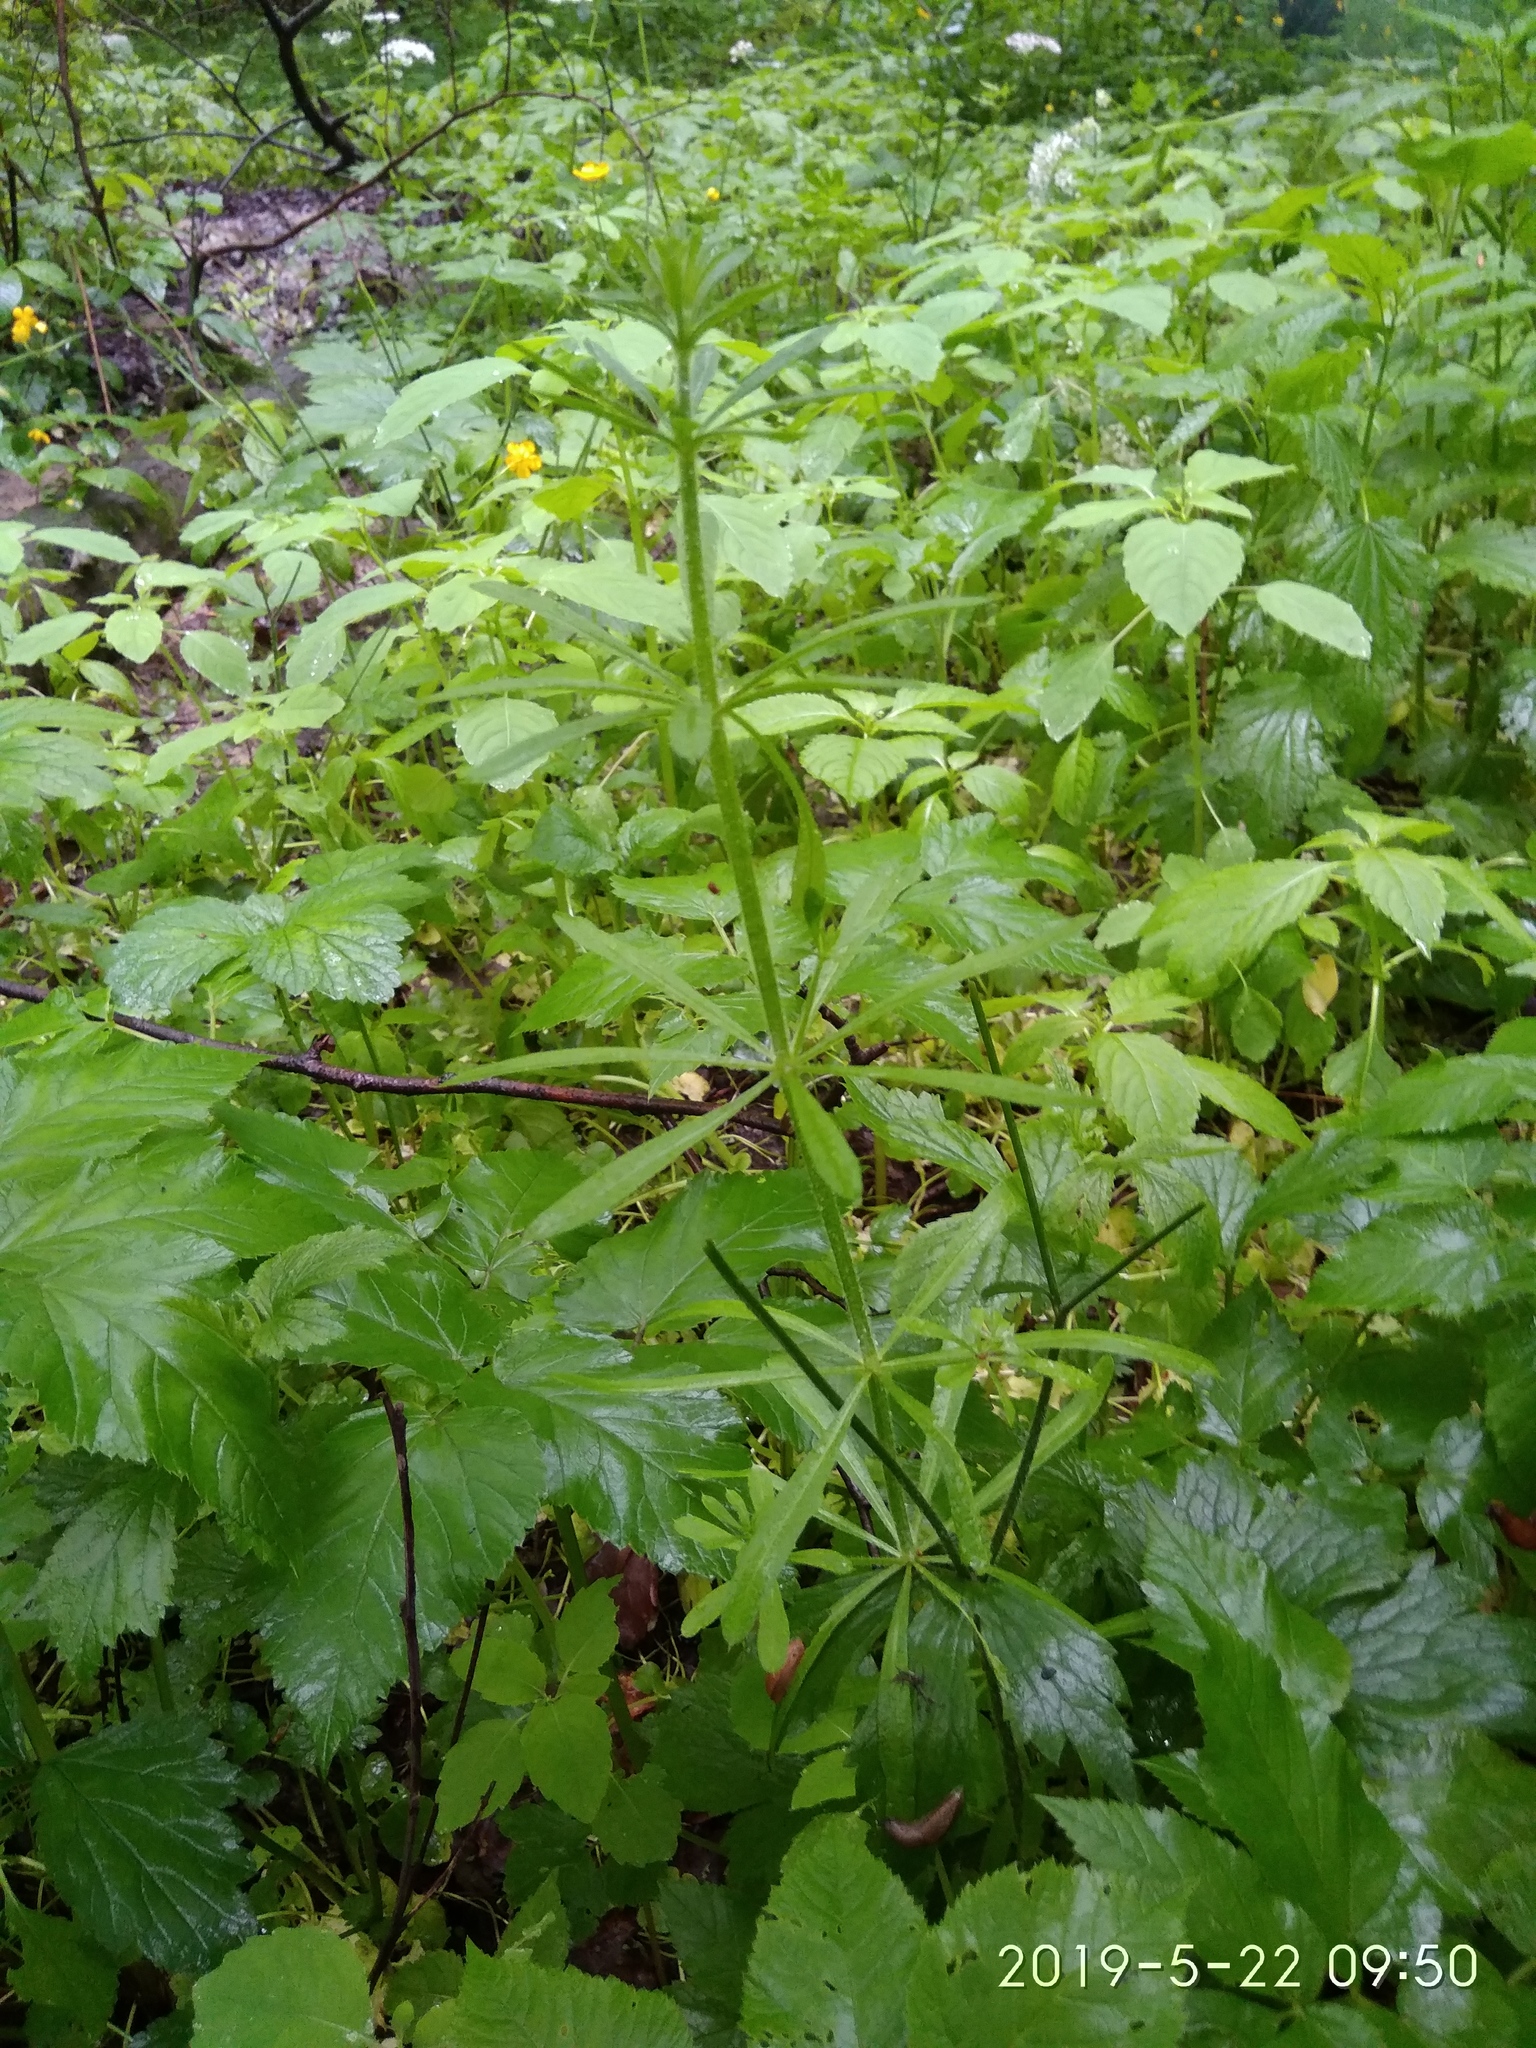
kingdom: Plantae
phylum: Tracheophyta
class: Magnoliopsida
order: Gentianales
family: Rubiaceae
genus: Galium
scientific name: Galium aparine
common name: Cleavers
